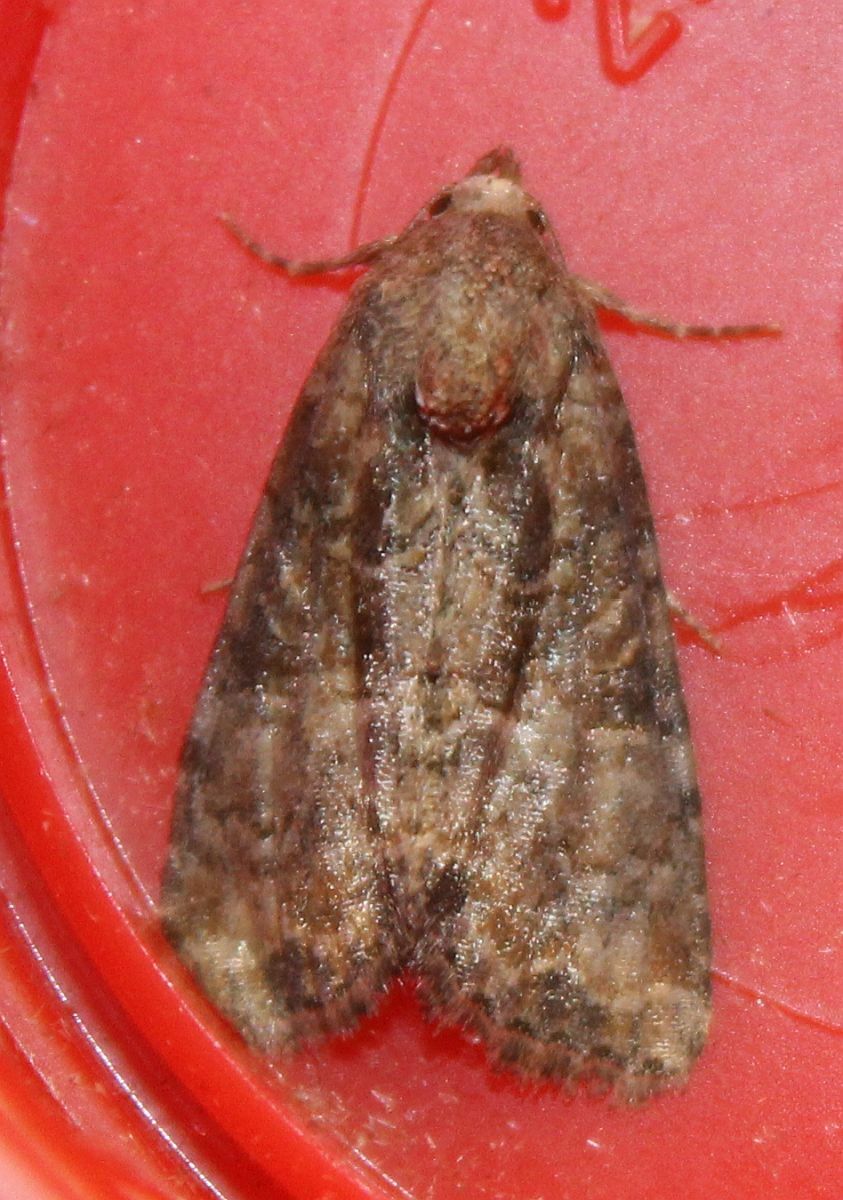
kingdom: Animalia
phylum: Arthropoda
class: Insecta
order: Lepidoptera
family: Noctuidae
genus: Mesoligia
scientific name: Mesoligia furuncula
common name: Cloaked minor
